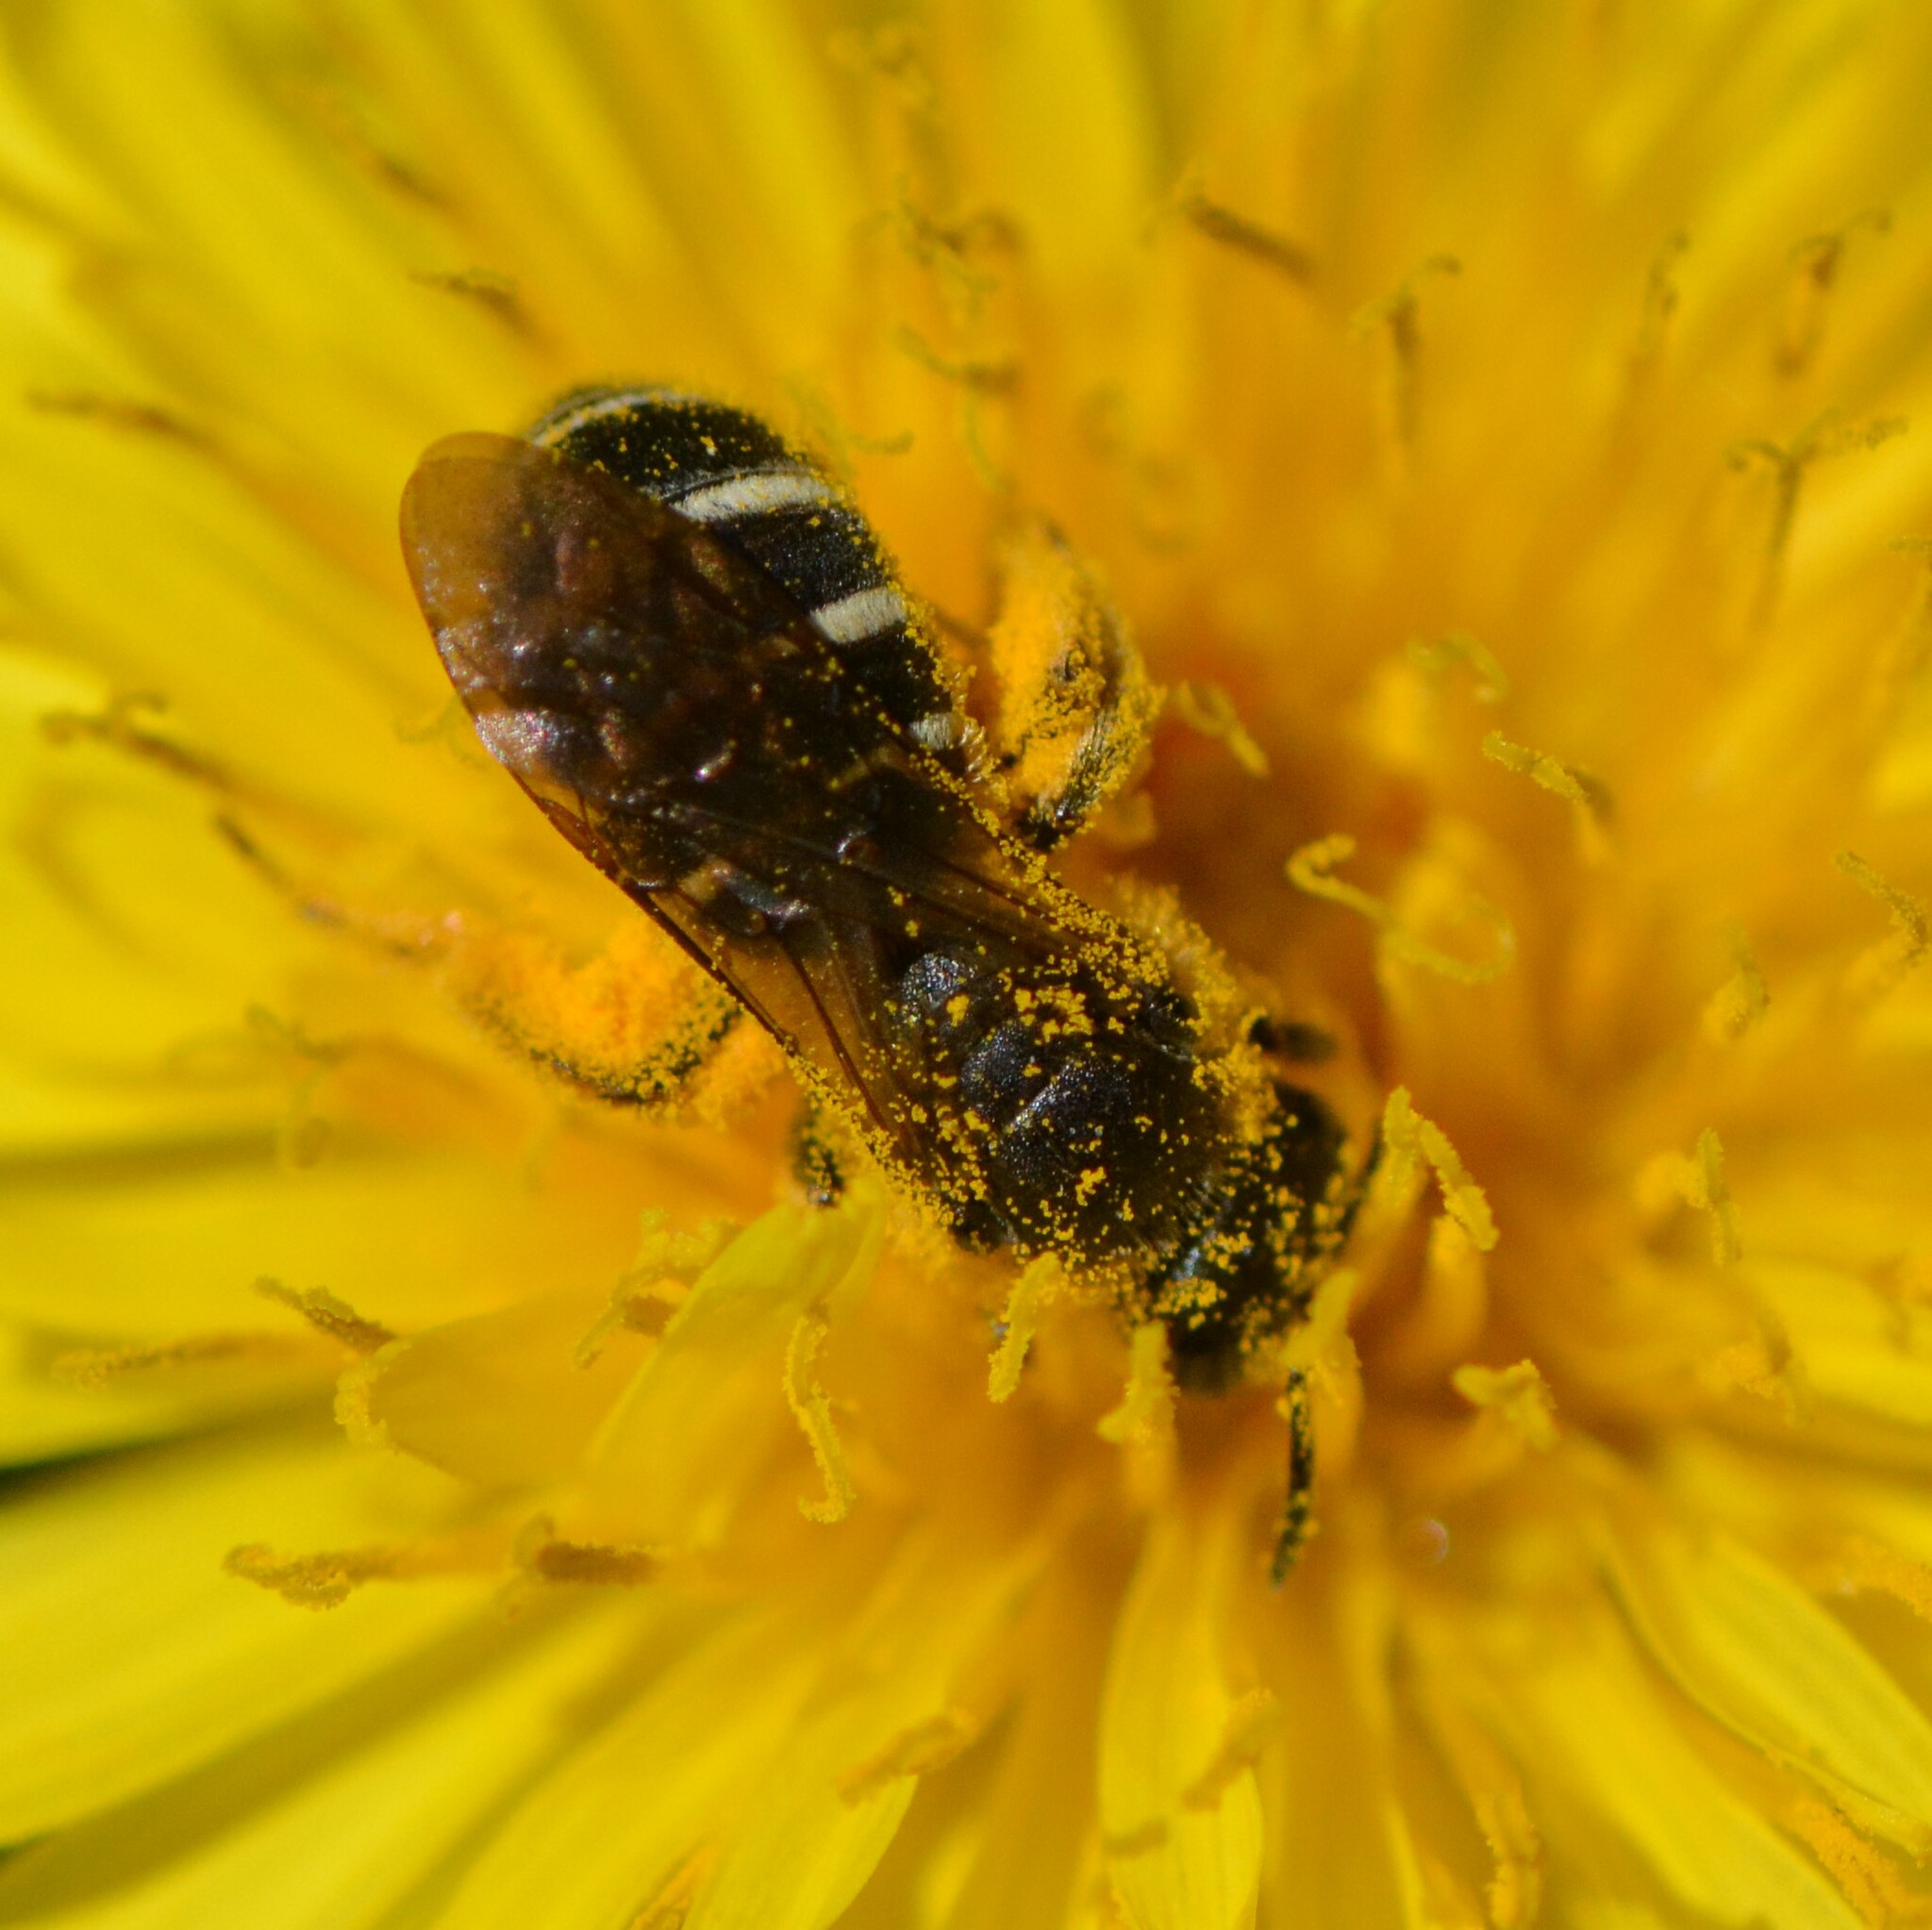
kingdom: Animalia
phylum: Arthropoda
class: Insecta
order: Hymenoptera
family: Halictidae
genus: Halictus
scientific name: Halictus rubicundus
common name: Orange-legged furrow bee
